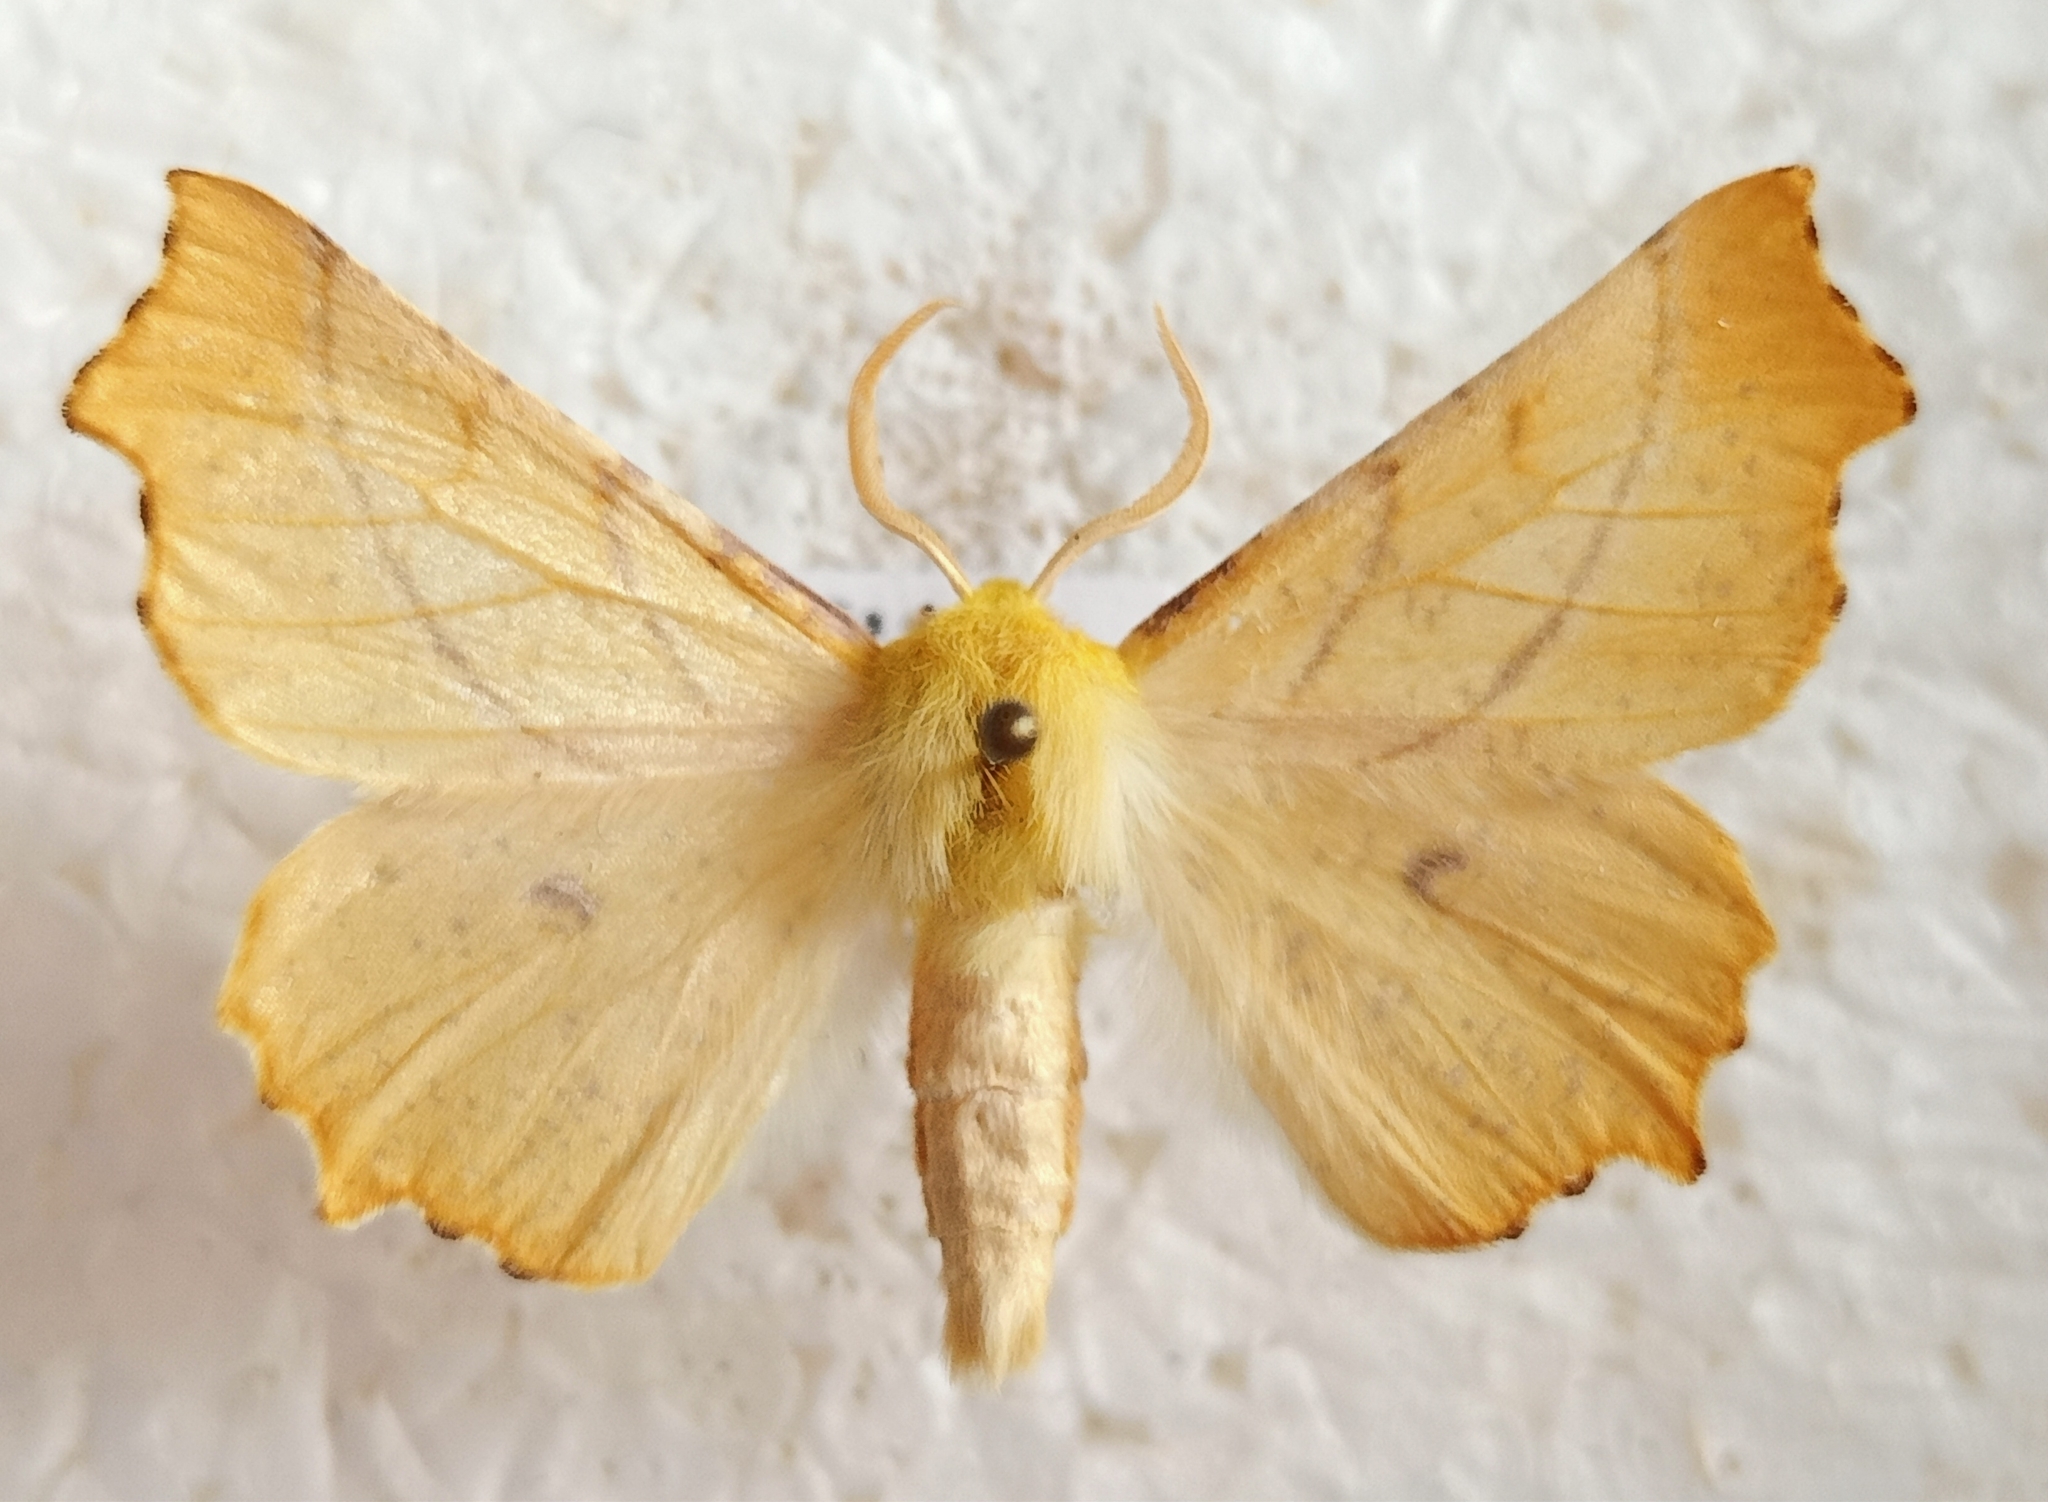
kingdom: Animalia
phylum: Arthropoda
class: Insecta
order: Lepidoptera
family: Geometridae
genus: Ennomos
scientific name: Ennomos alniaria
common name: Canary-shouldered thorn
